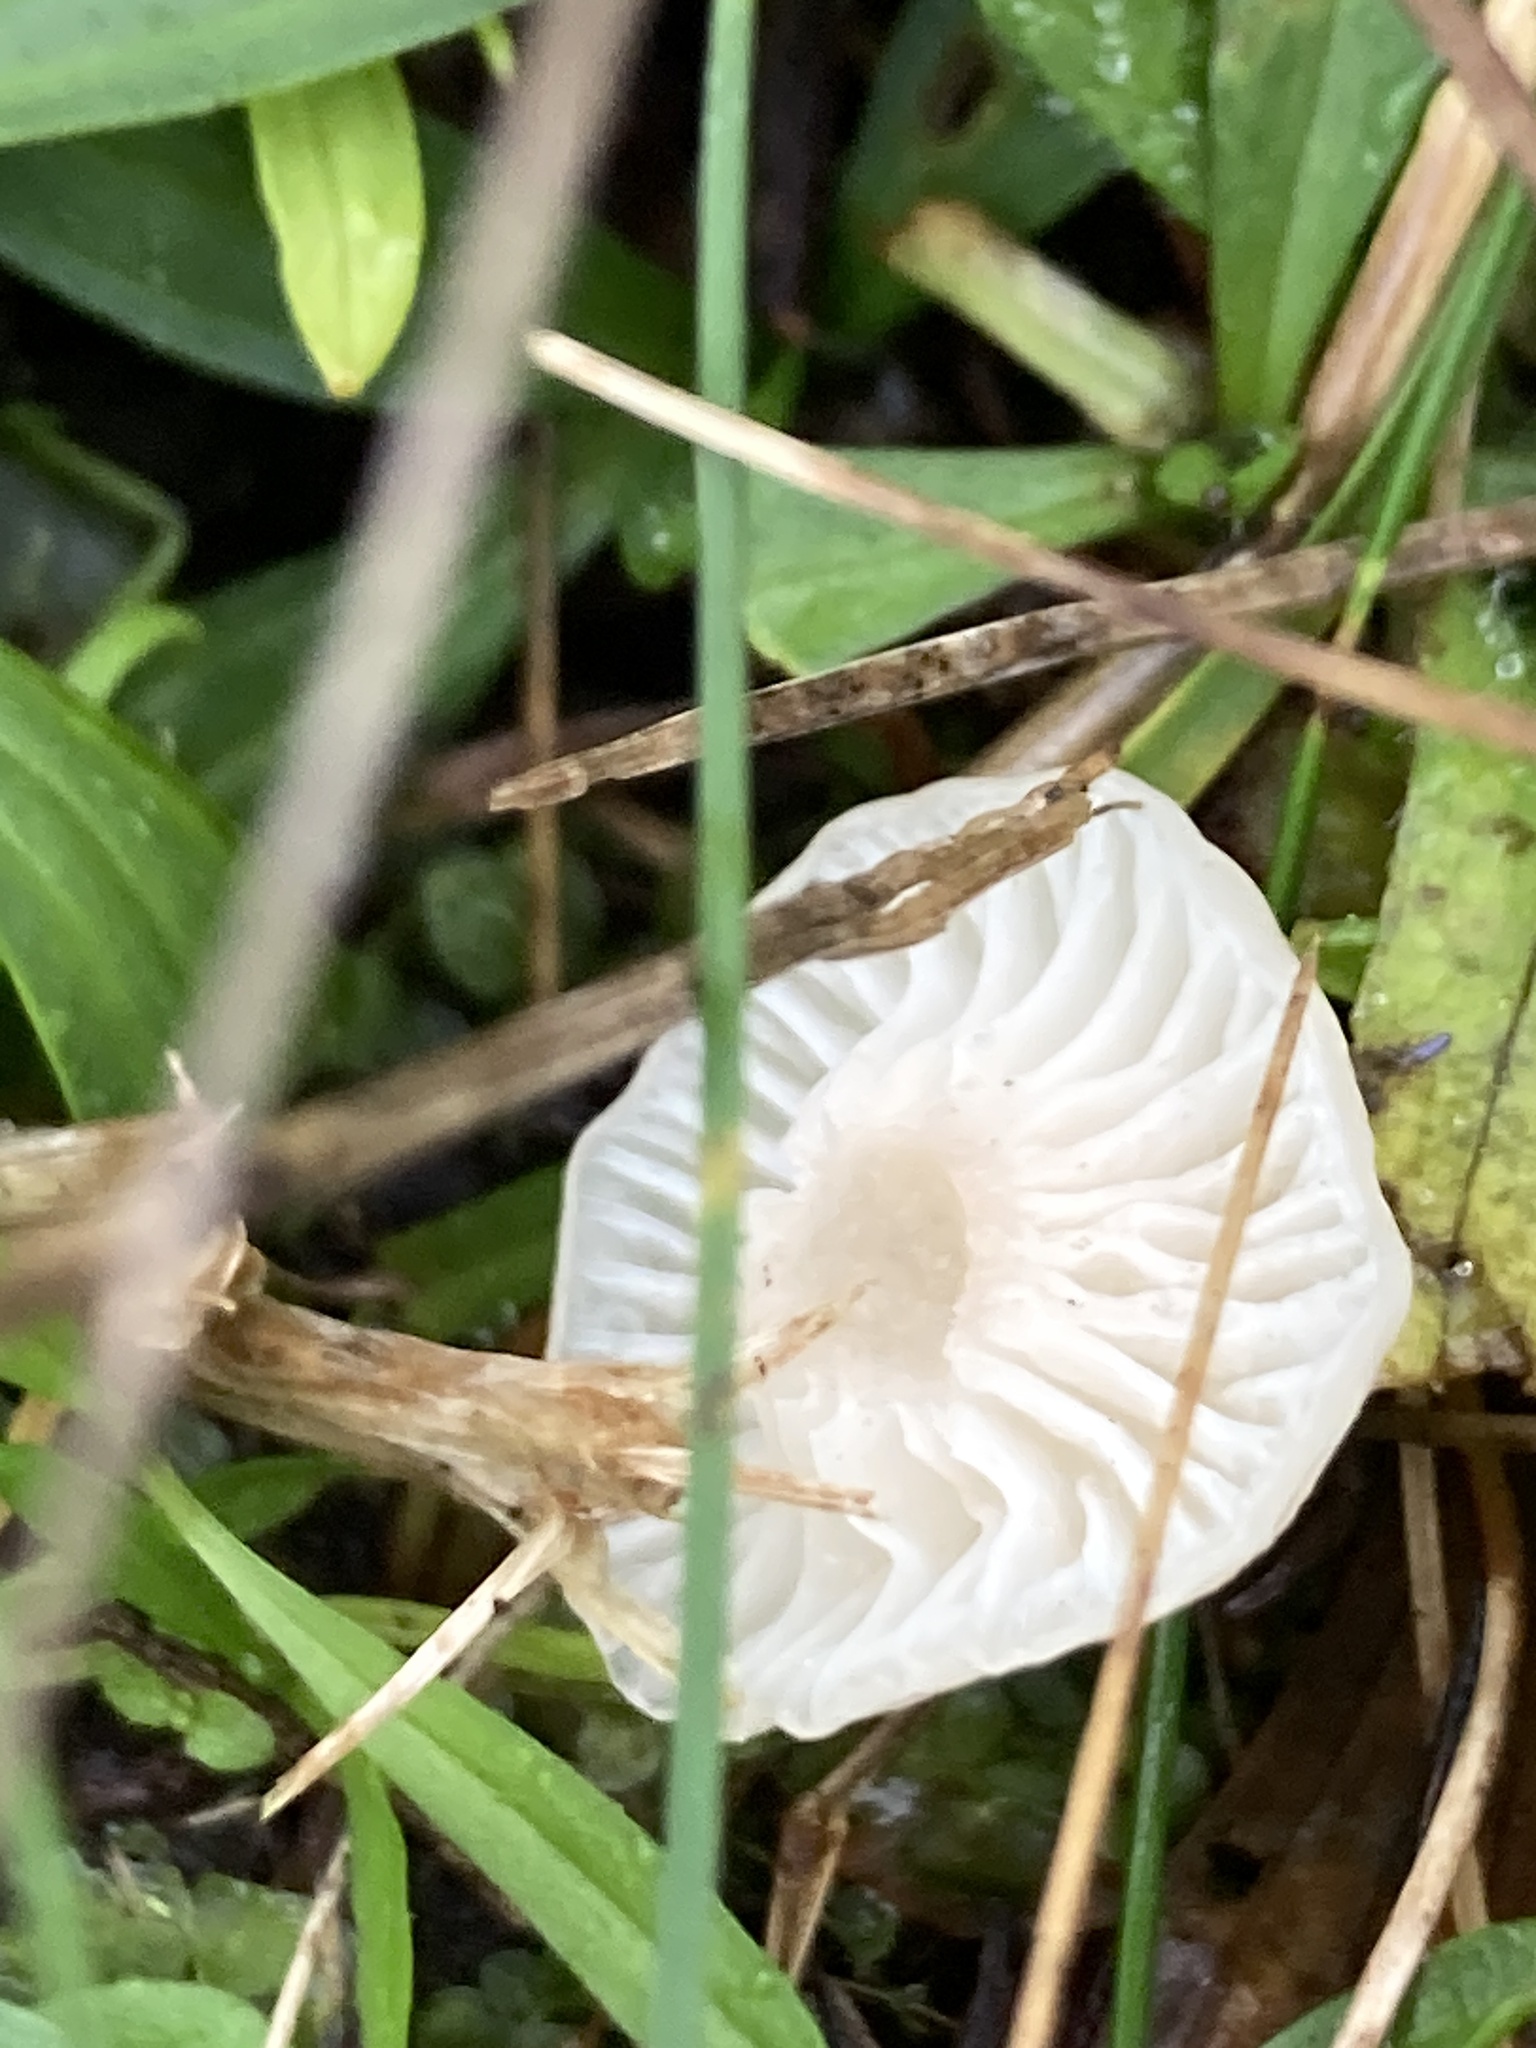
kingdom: Fungi
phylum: Basidiomycota
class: Agaricomycetes
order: Agaricales
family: Hygrophoraceae
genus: Cuphophyllus
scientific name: Cuphophyllus virgineus
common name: Snowy waxcap
